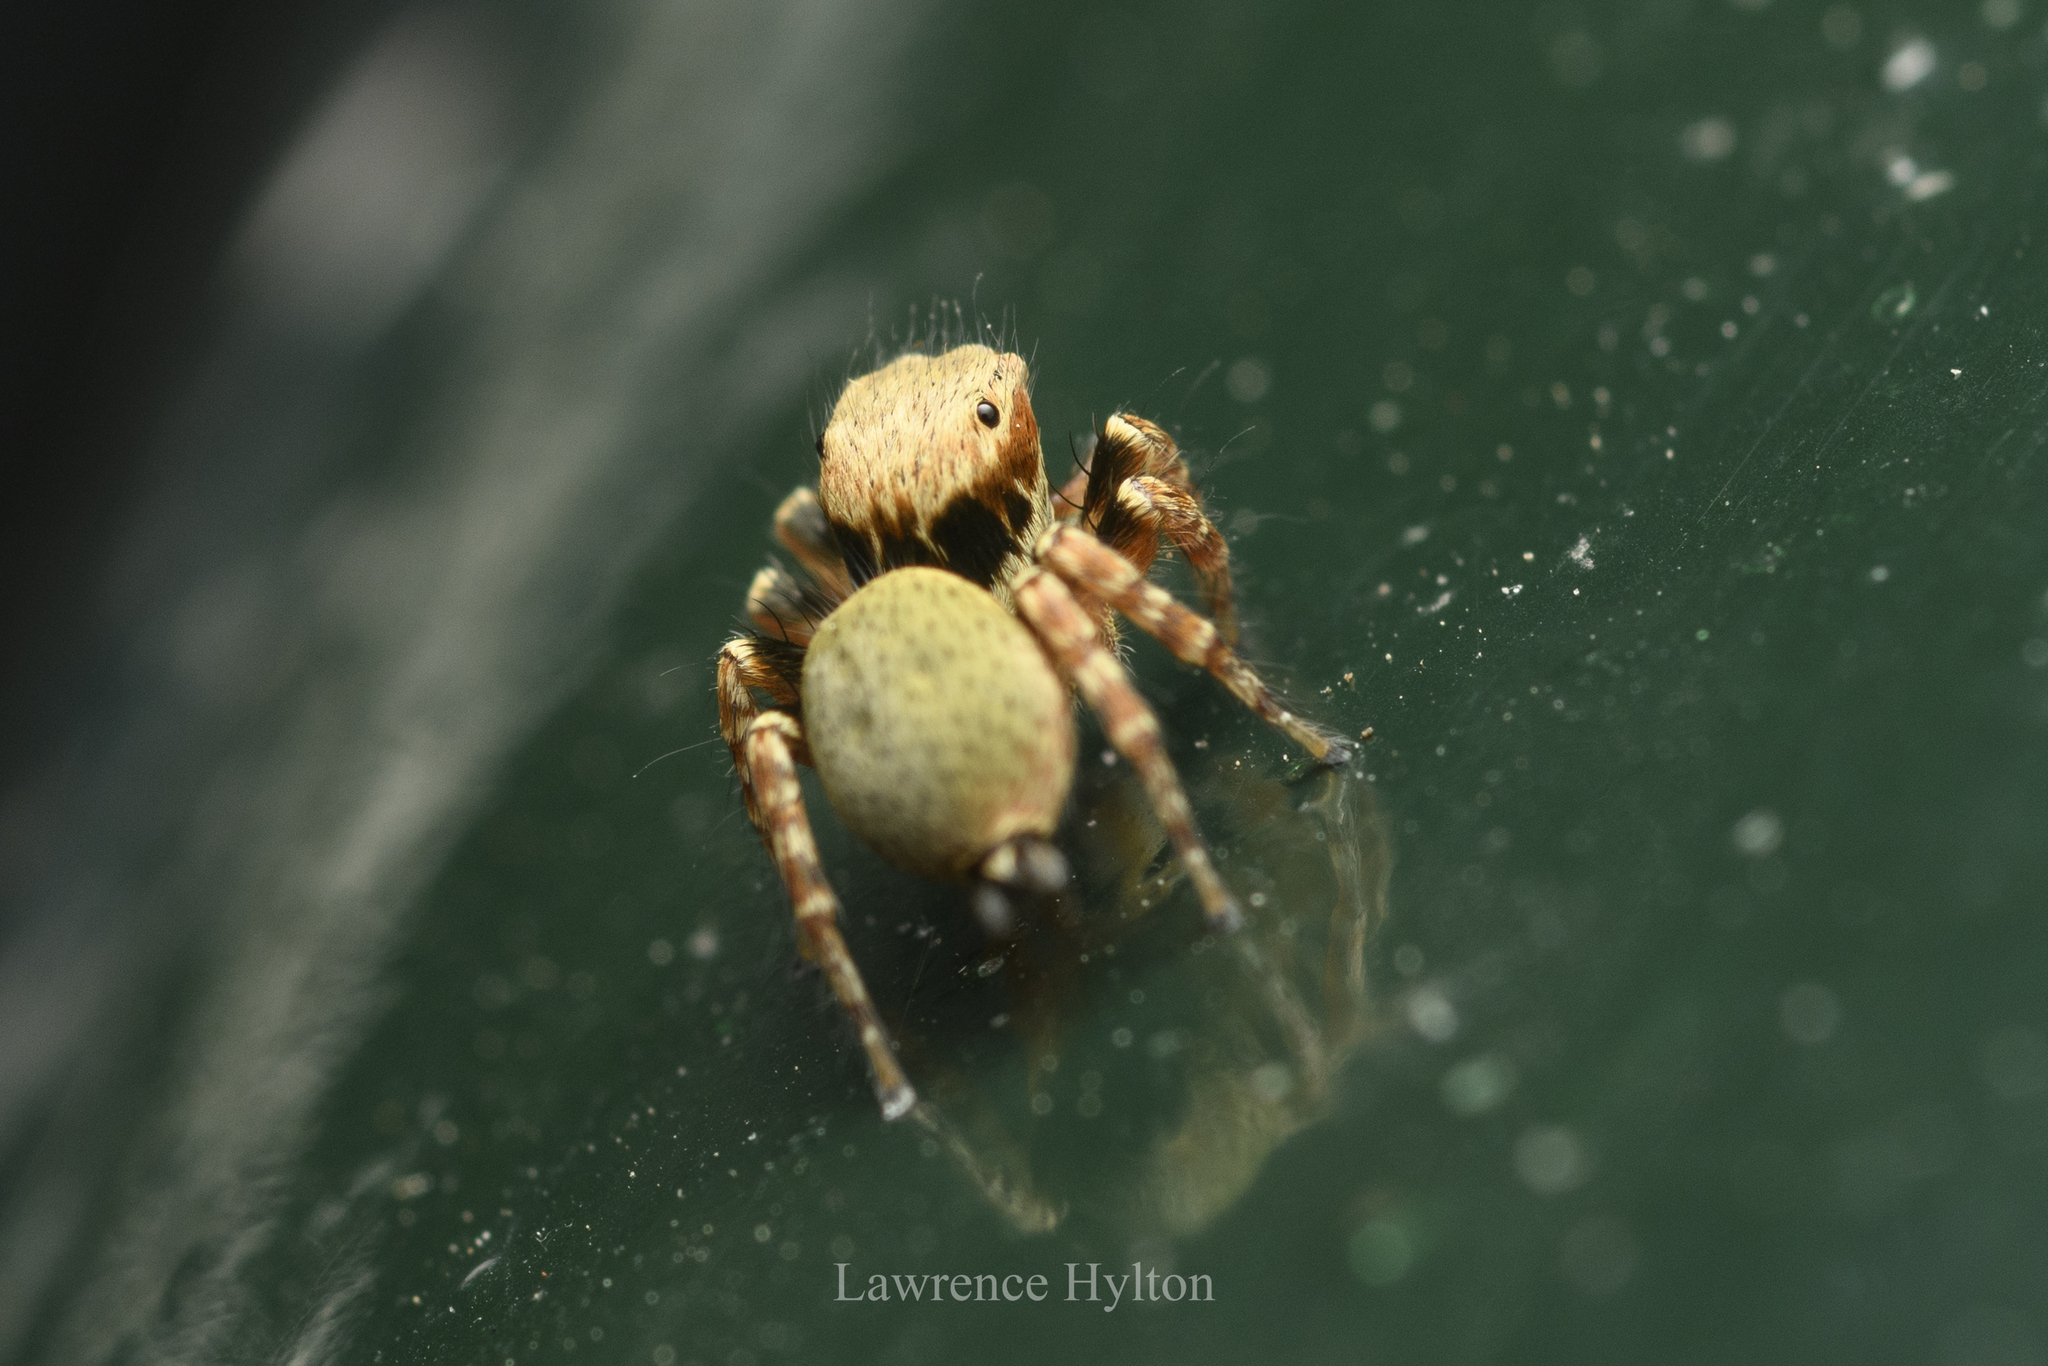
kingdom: Animalia
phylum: Arthropoda
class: Arachnida
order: Araneae
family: Salticidae
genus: Carrhotus
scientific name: Carrhotus sannio
